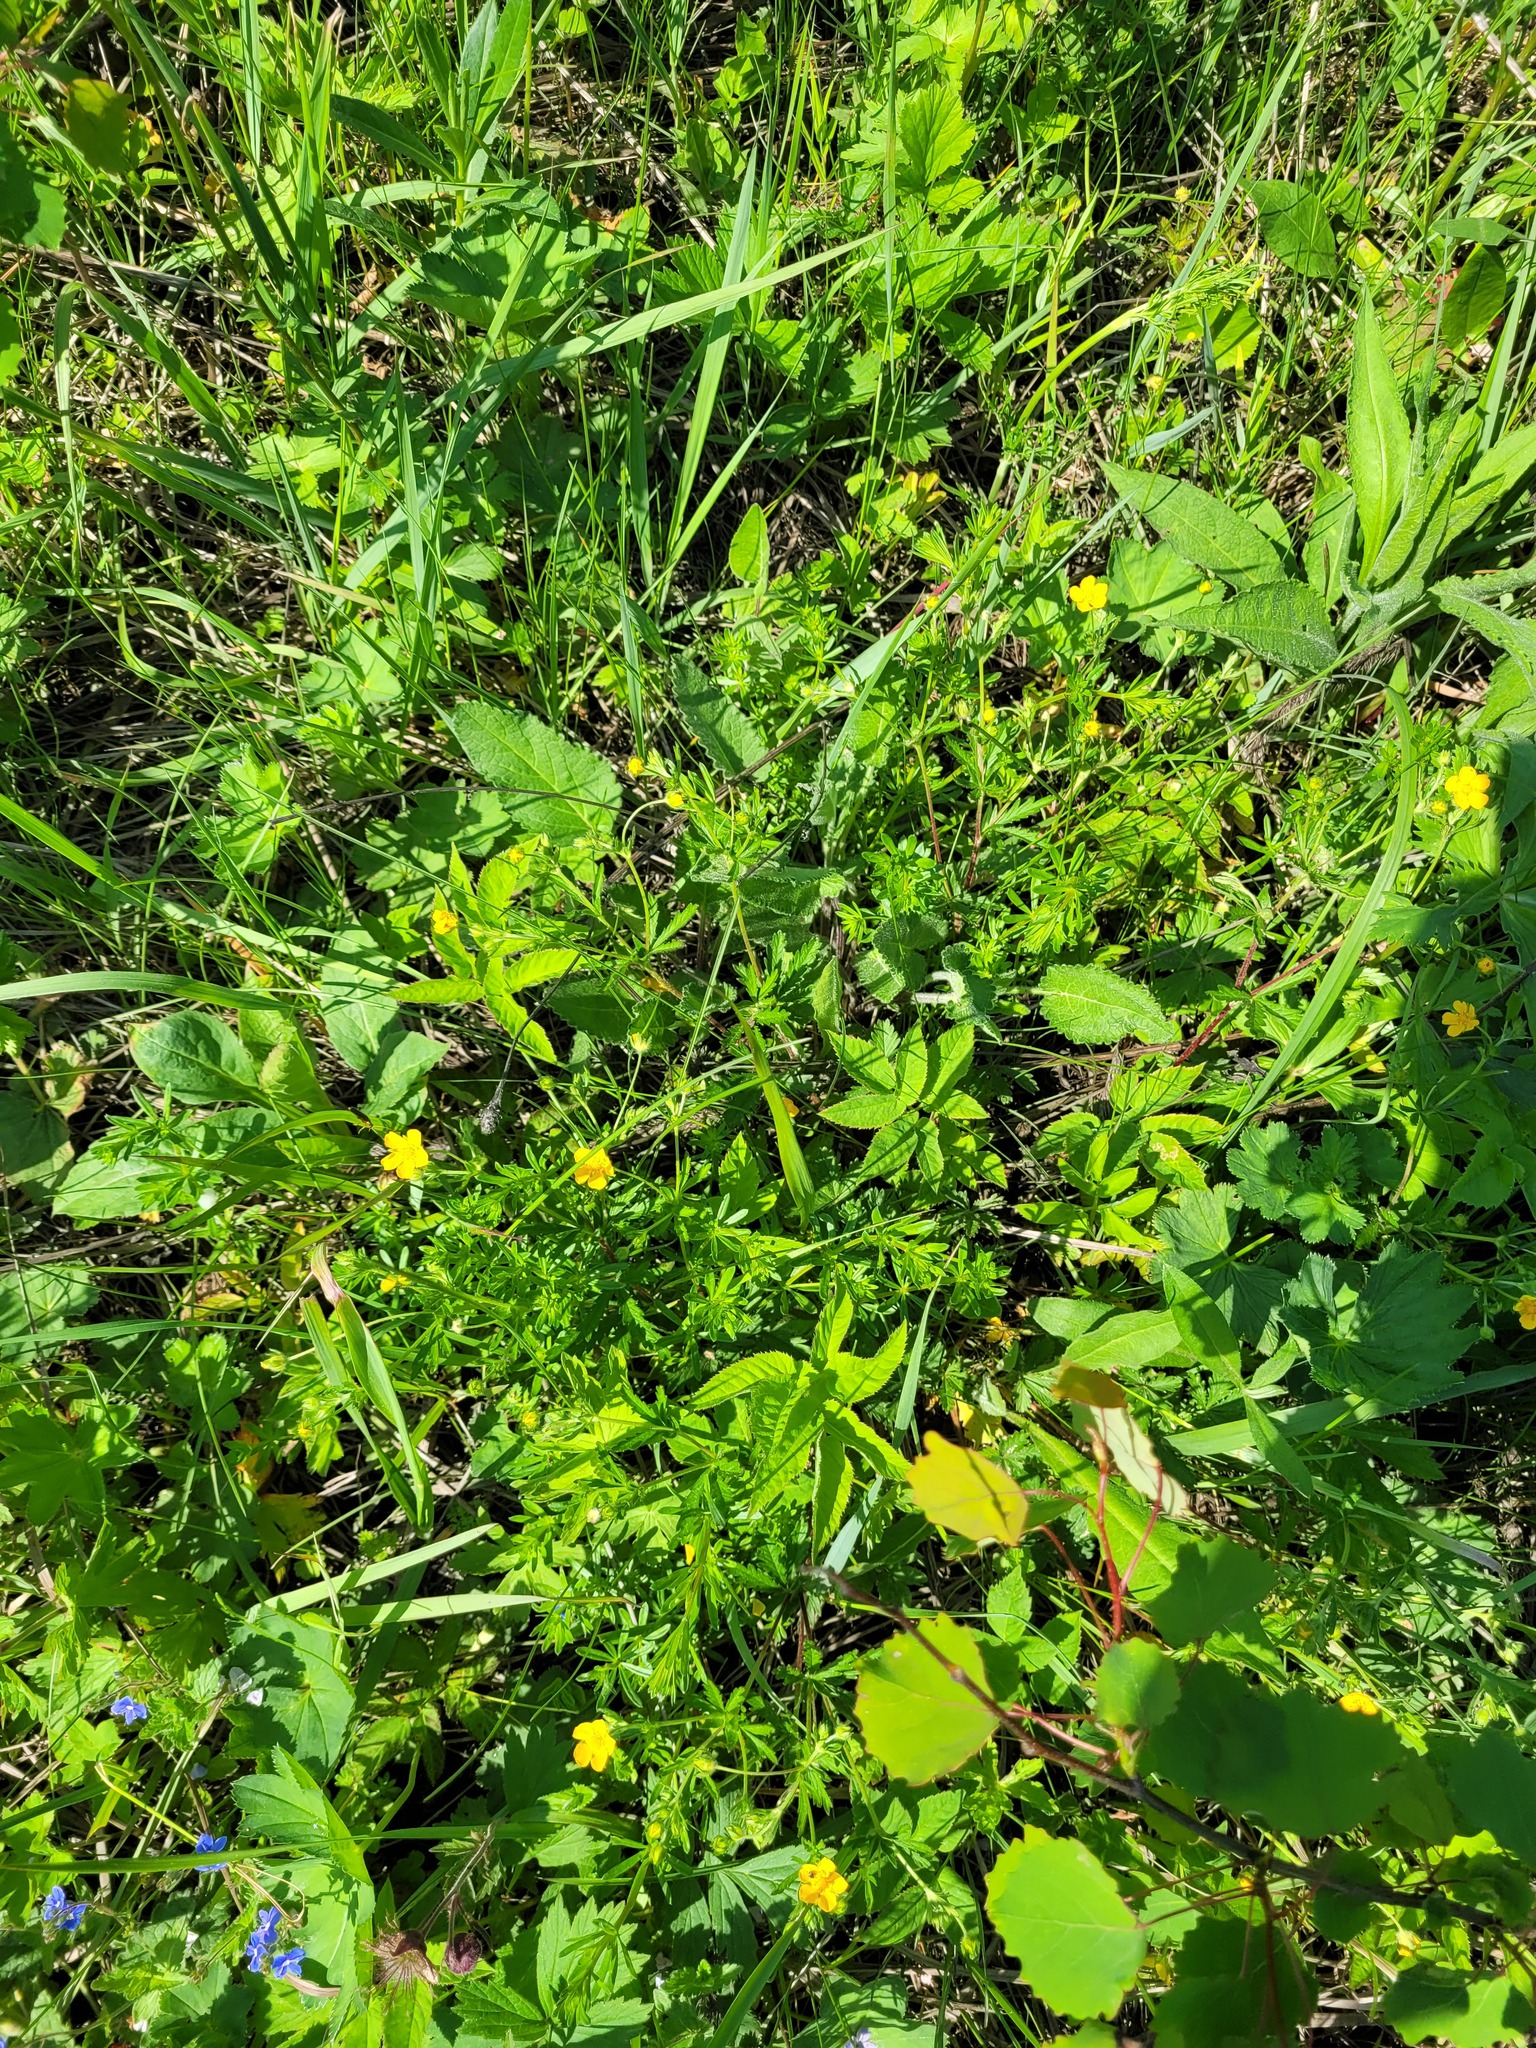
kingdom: Plantae
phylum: Tracheophyta
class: Magnoliopsida
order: Rosales
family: Rosaceae
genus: Potentilla
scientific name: Potentilla thuringiaca
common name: European cinquefoil
